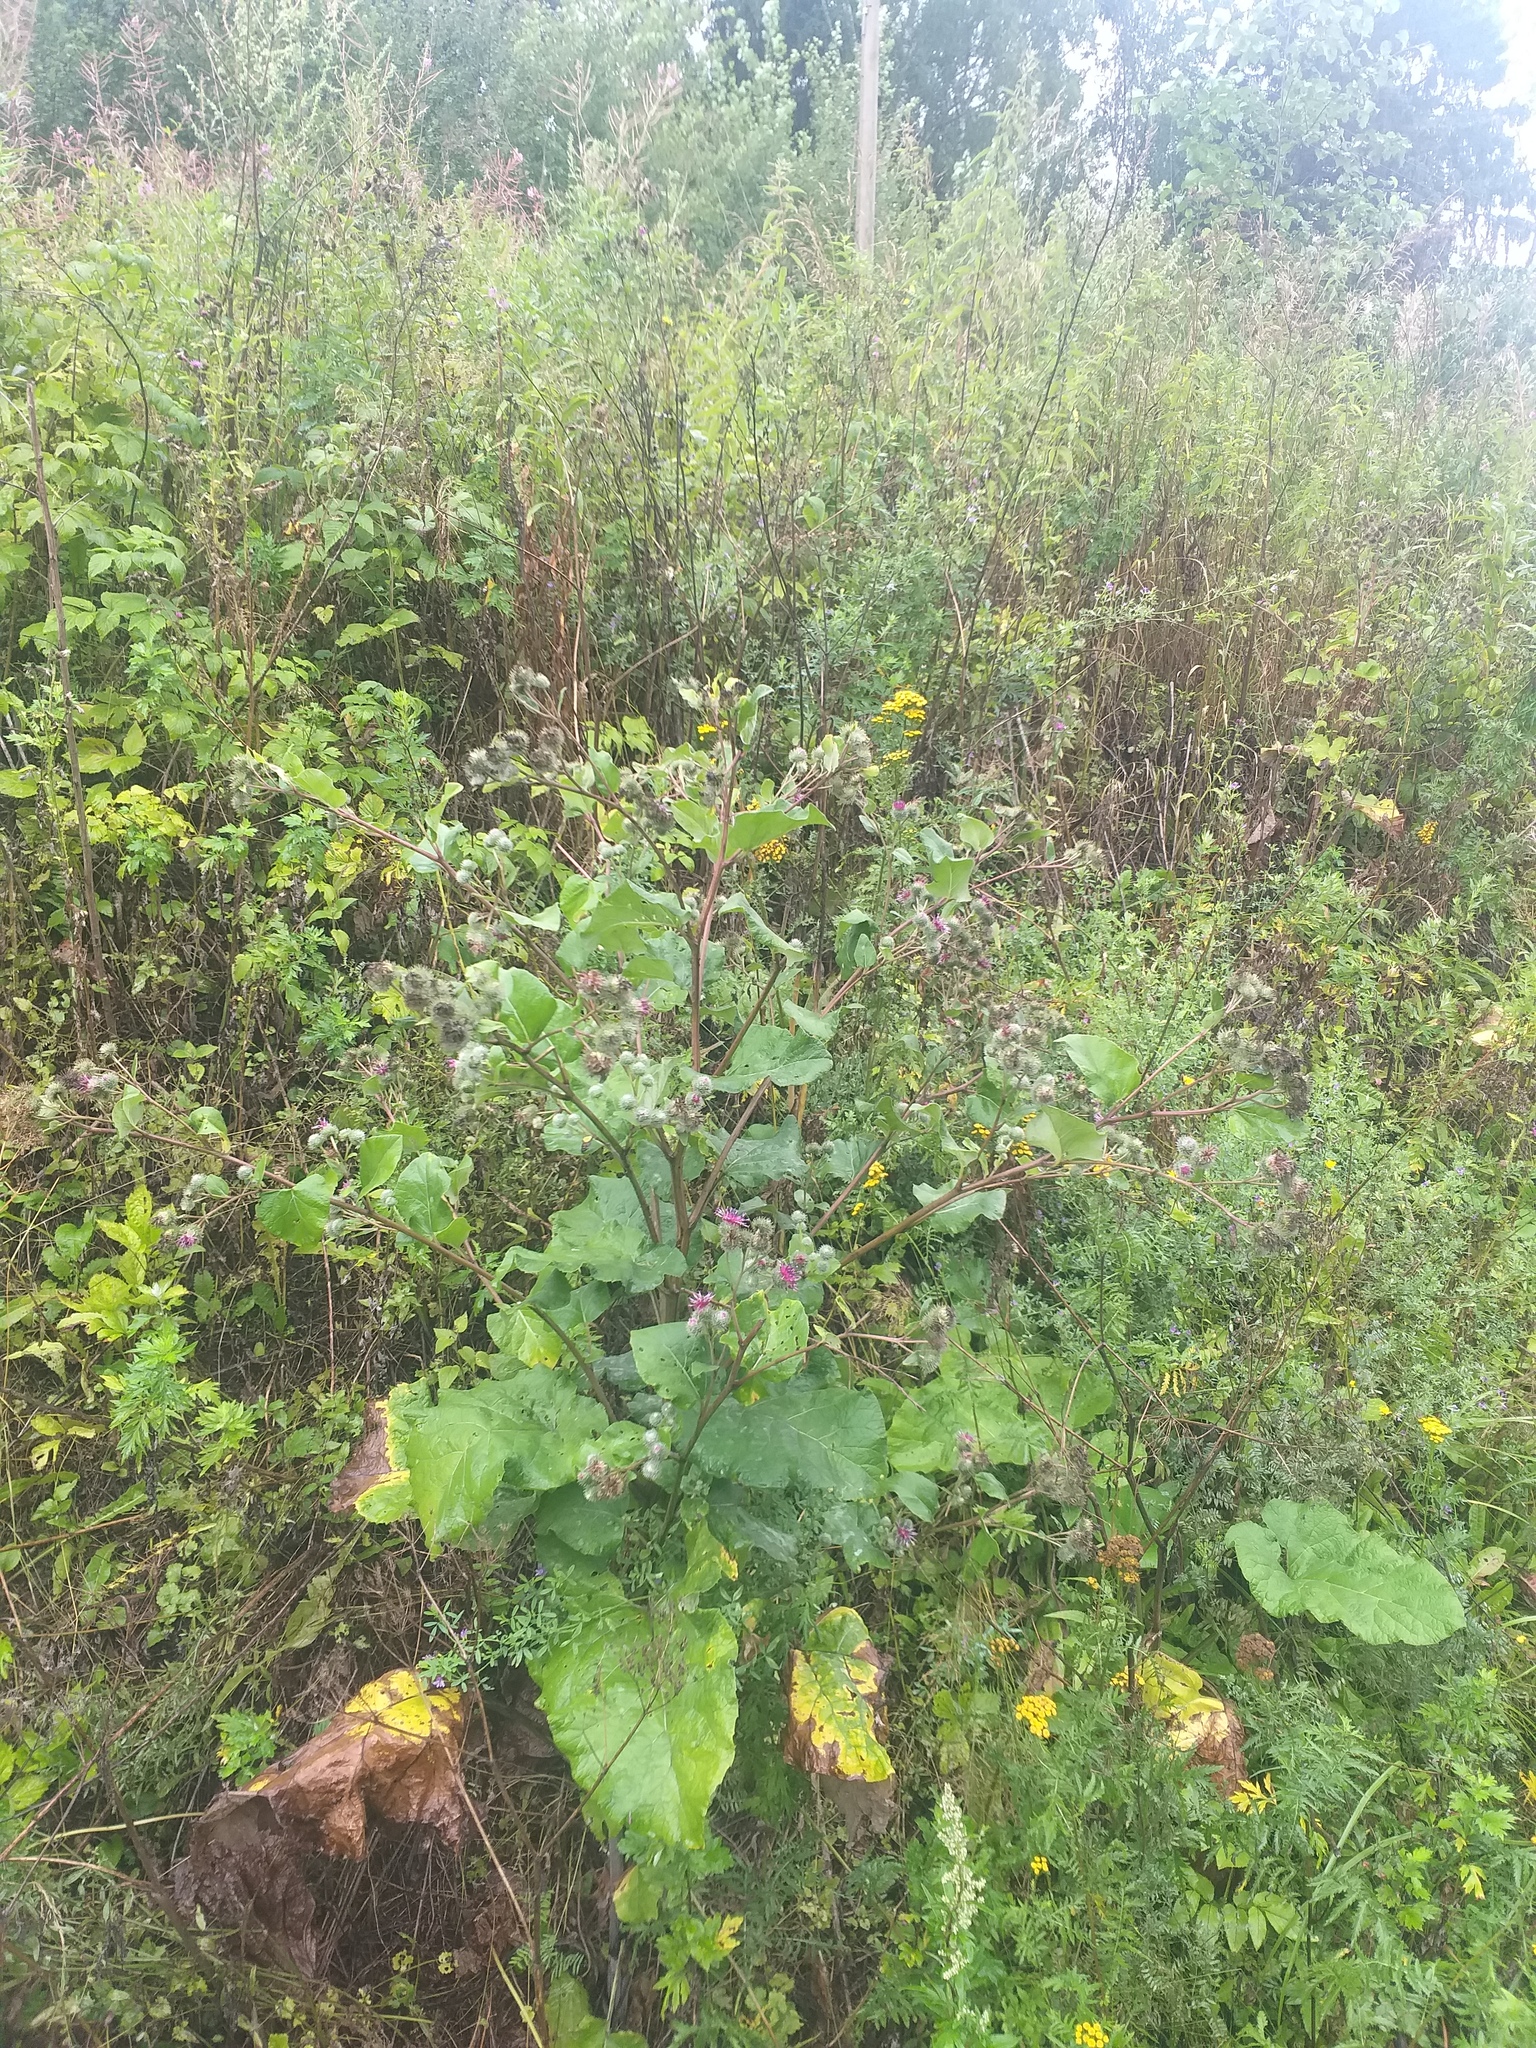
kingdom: Plantae
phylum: Tracheophyta
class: Magnoliopsida
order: Asterales
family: Asteraceae
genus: Arctium
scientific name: Arctium tomentosum
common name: Woolly burdock
